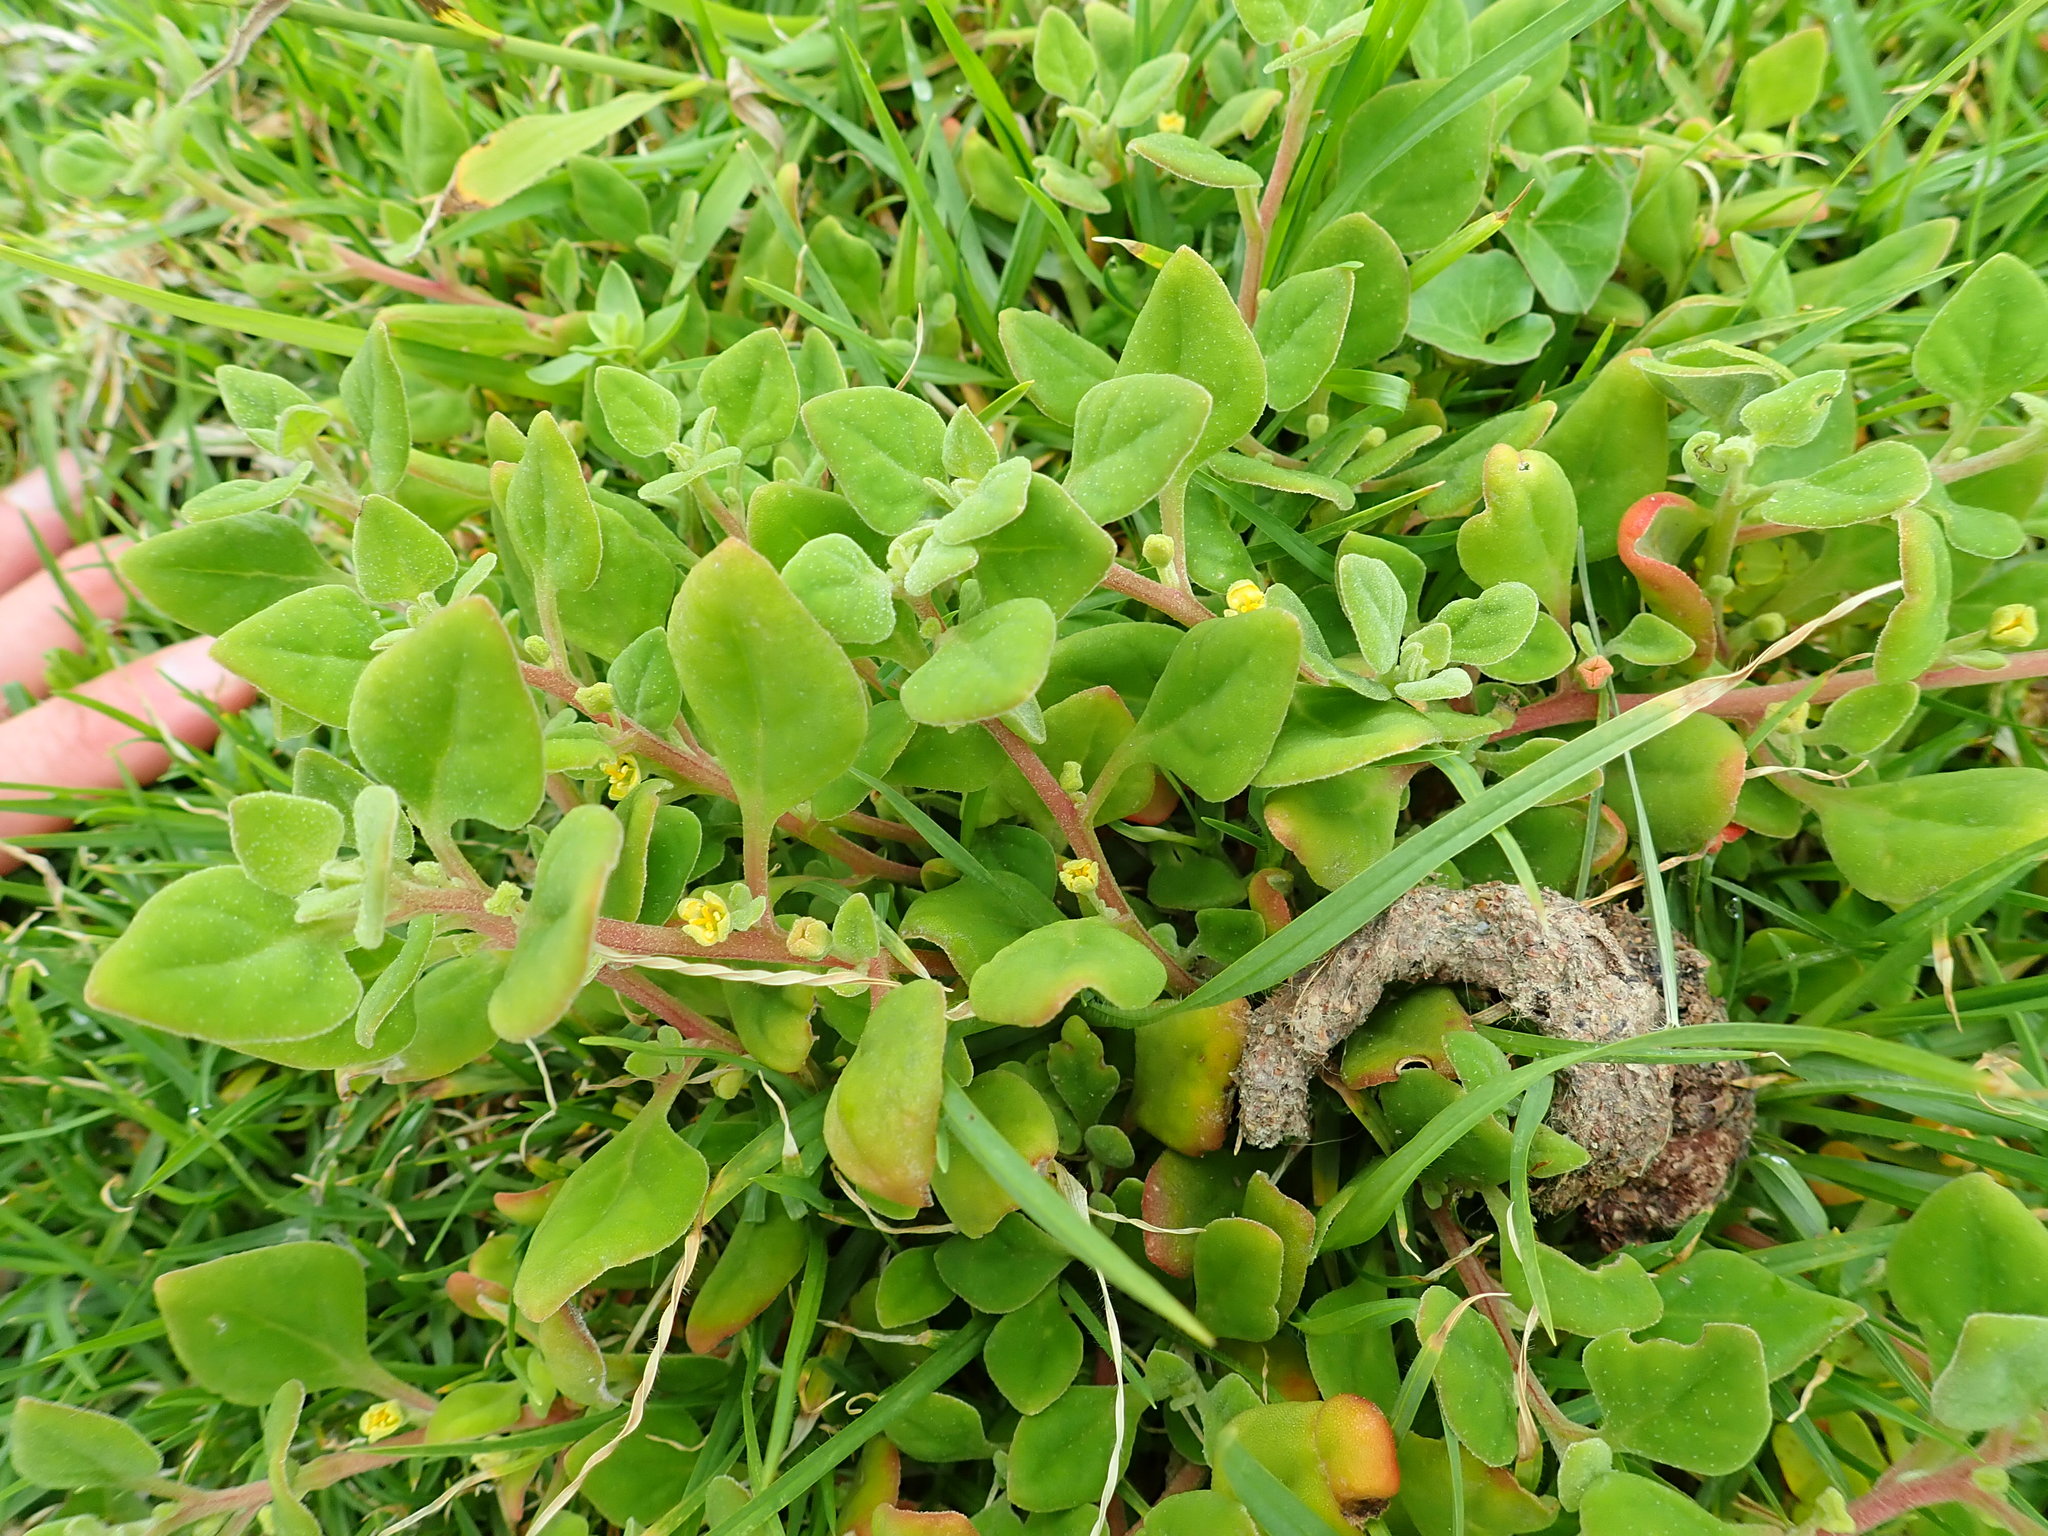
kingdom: Plantae
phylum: Tracheophyta
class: Magnoliopsida
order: Caryophyllales
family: Aizoaceae
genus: Tetragonia
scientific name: Tetragonia implexicoma
